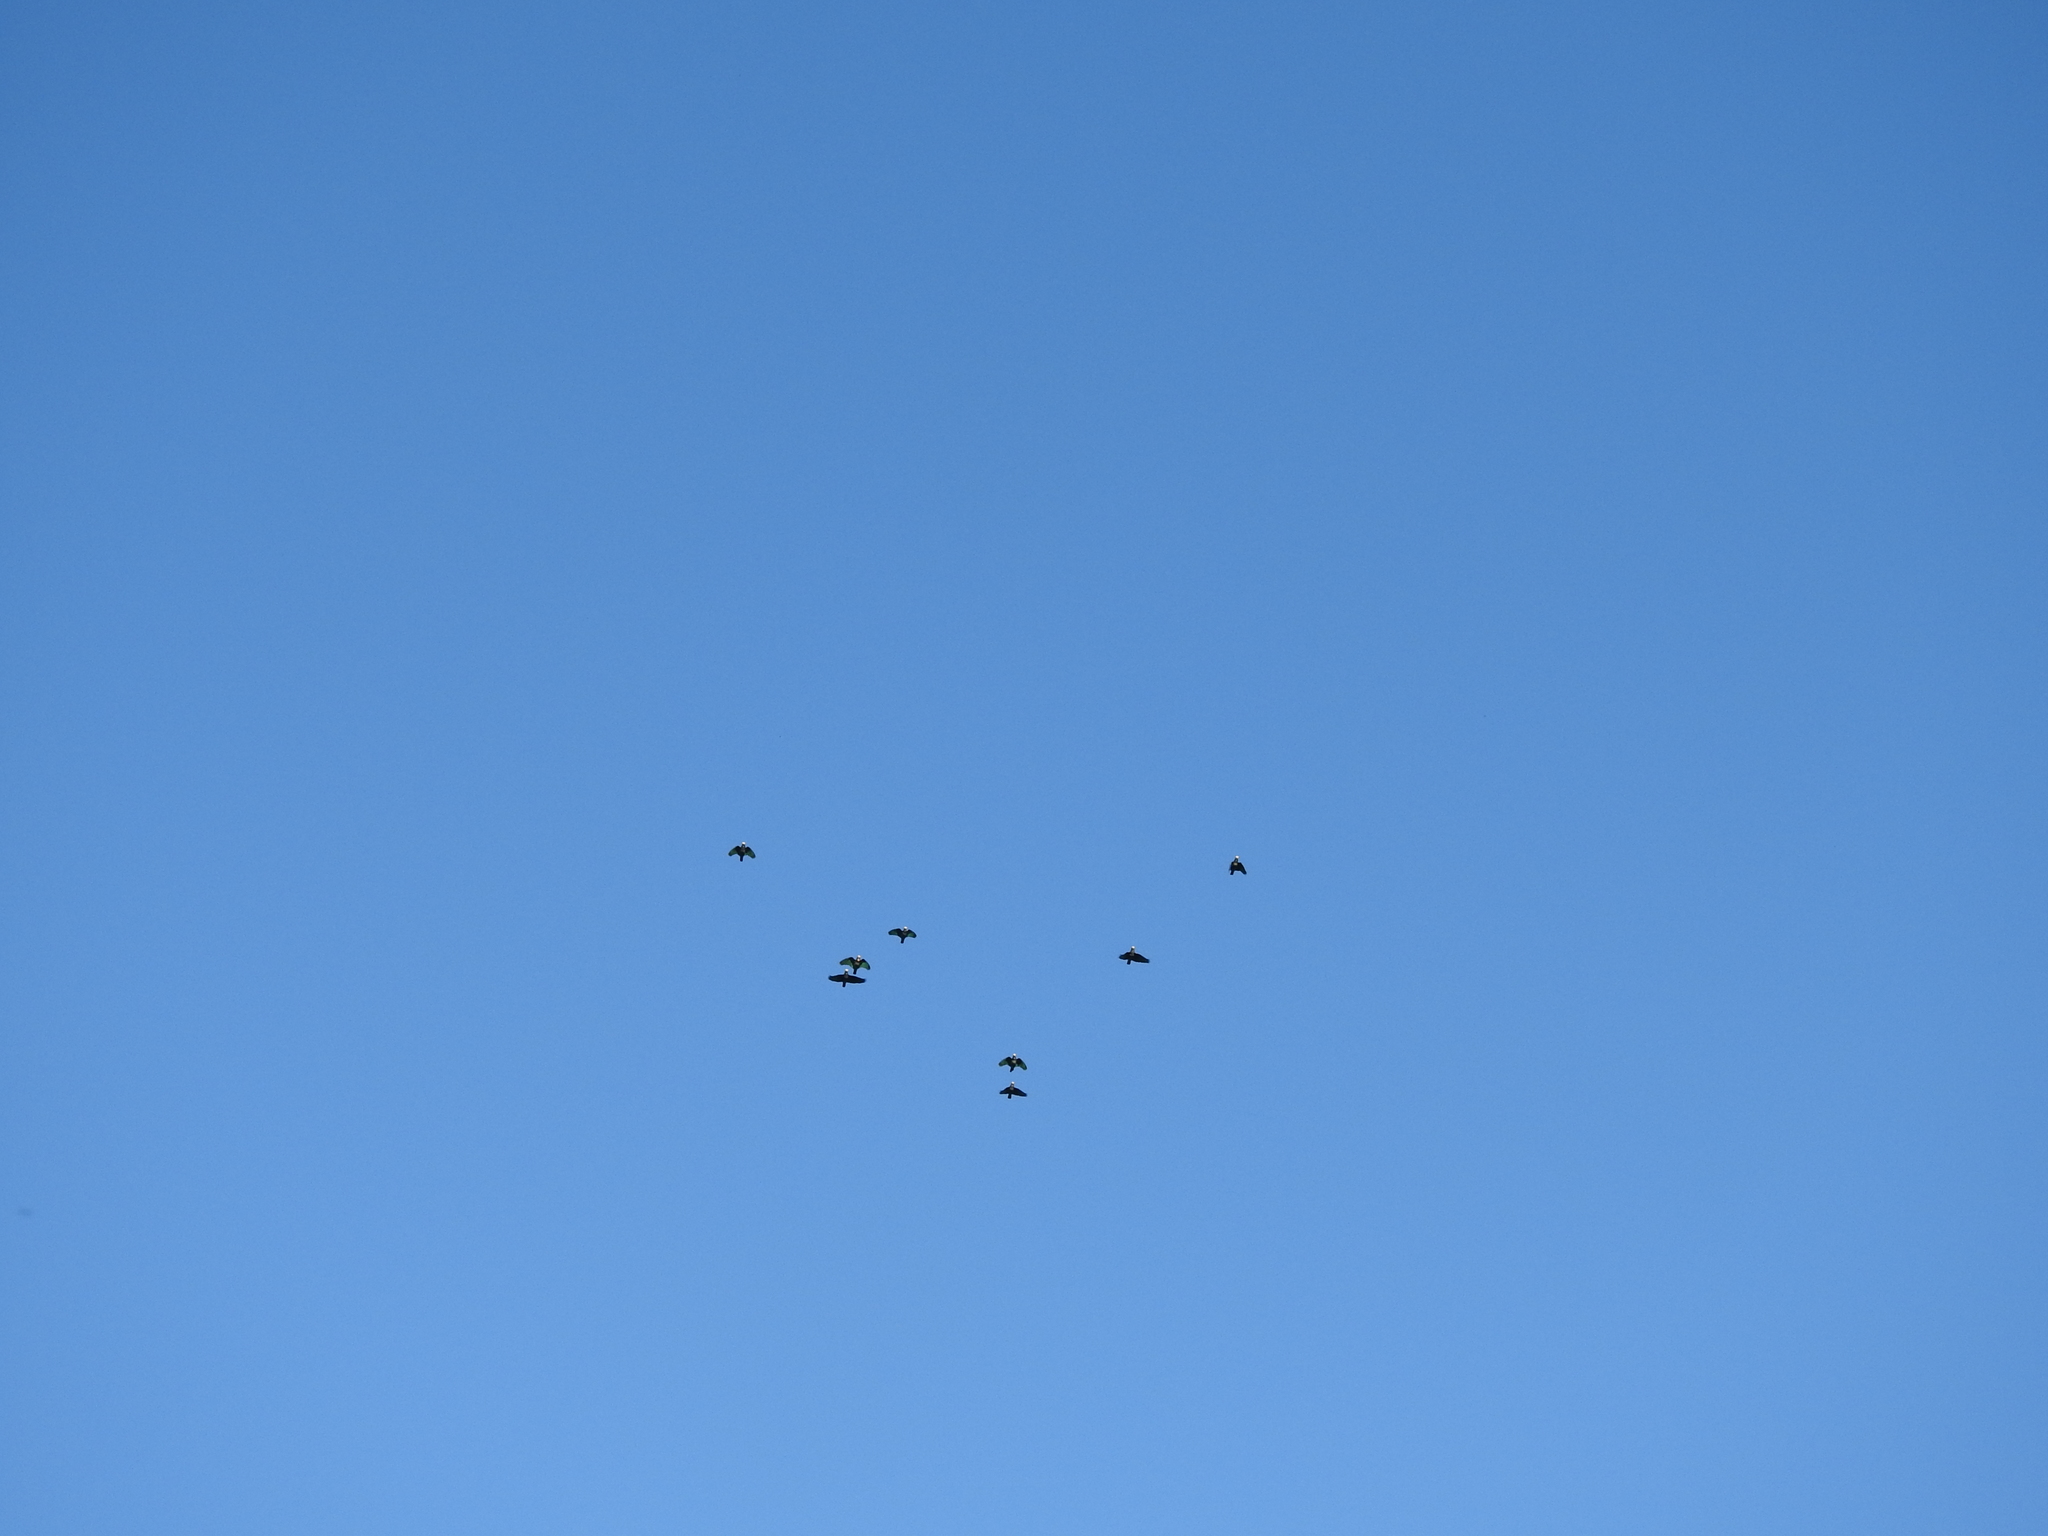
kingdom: Animalia
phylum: Chordata
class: Aves
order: Psittaciformes
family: Psittacidae
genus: Pionus
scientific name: Pionus senilis
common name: White-crowned parrot
